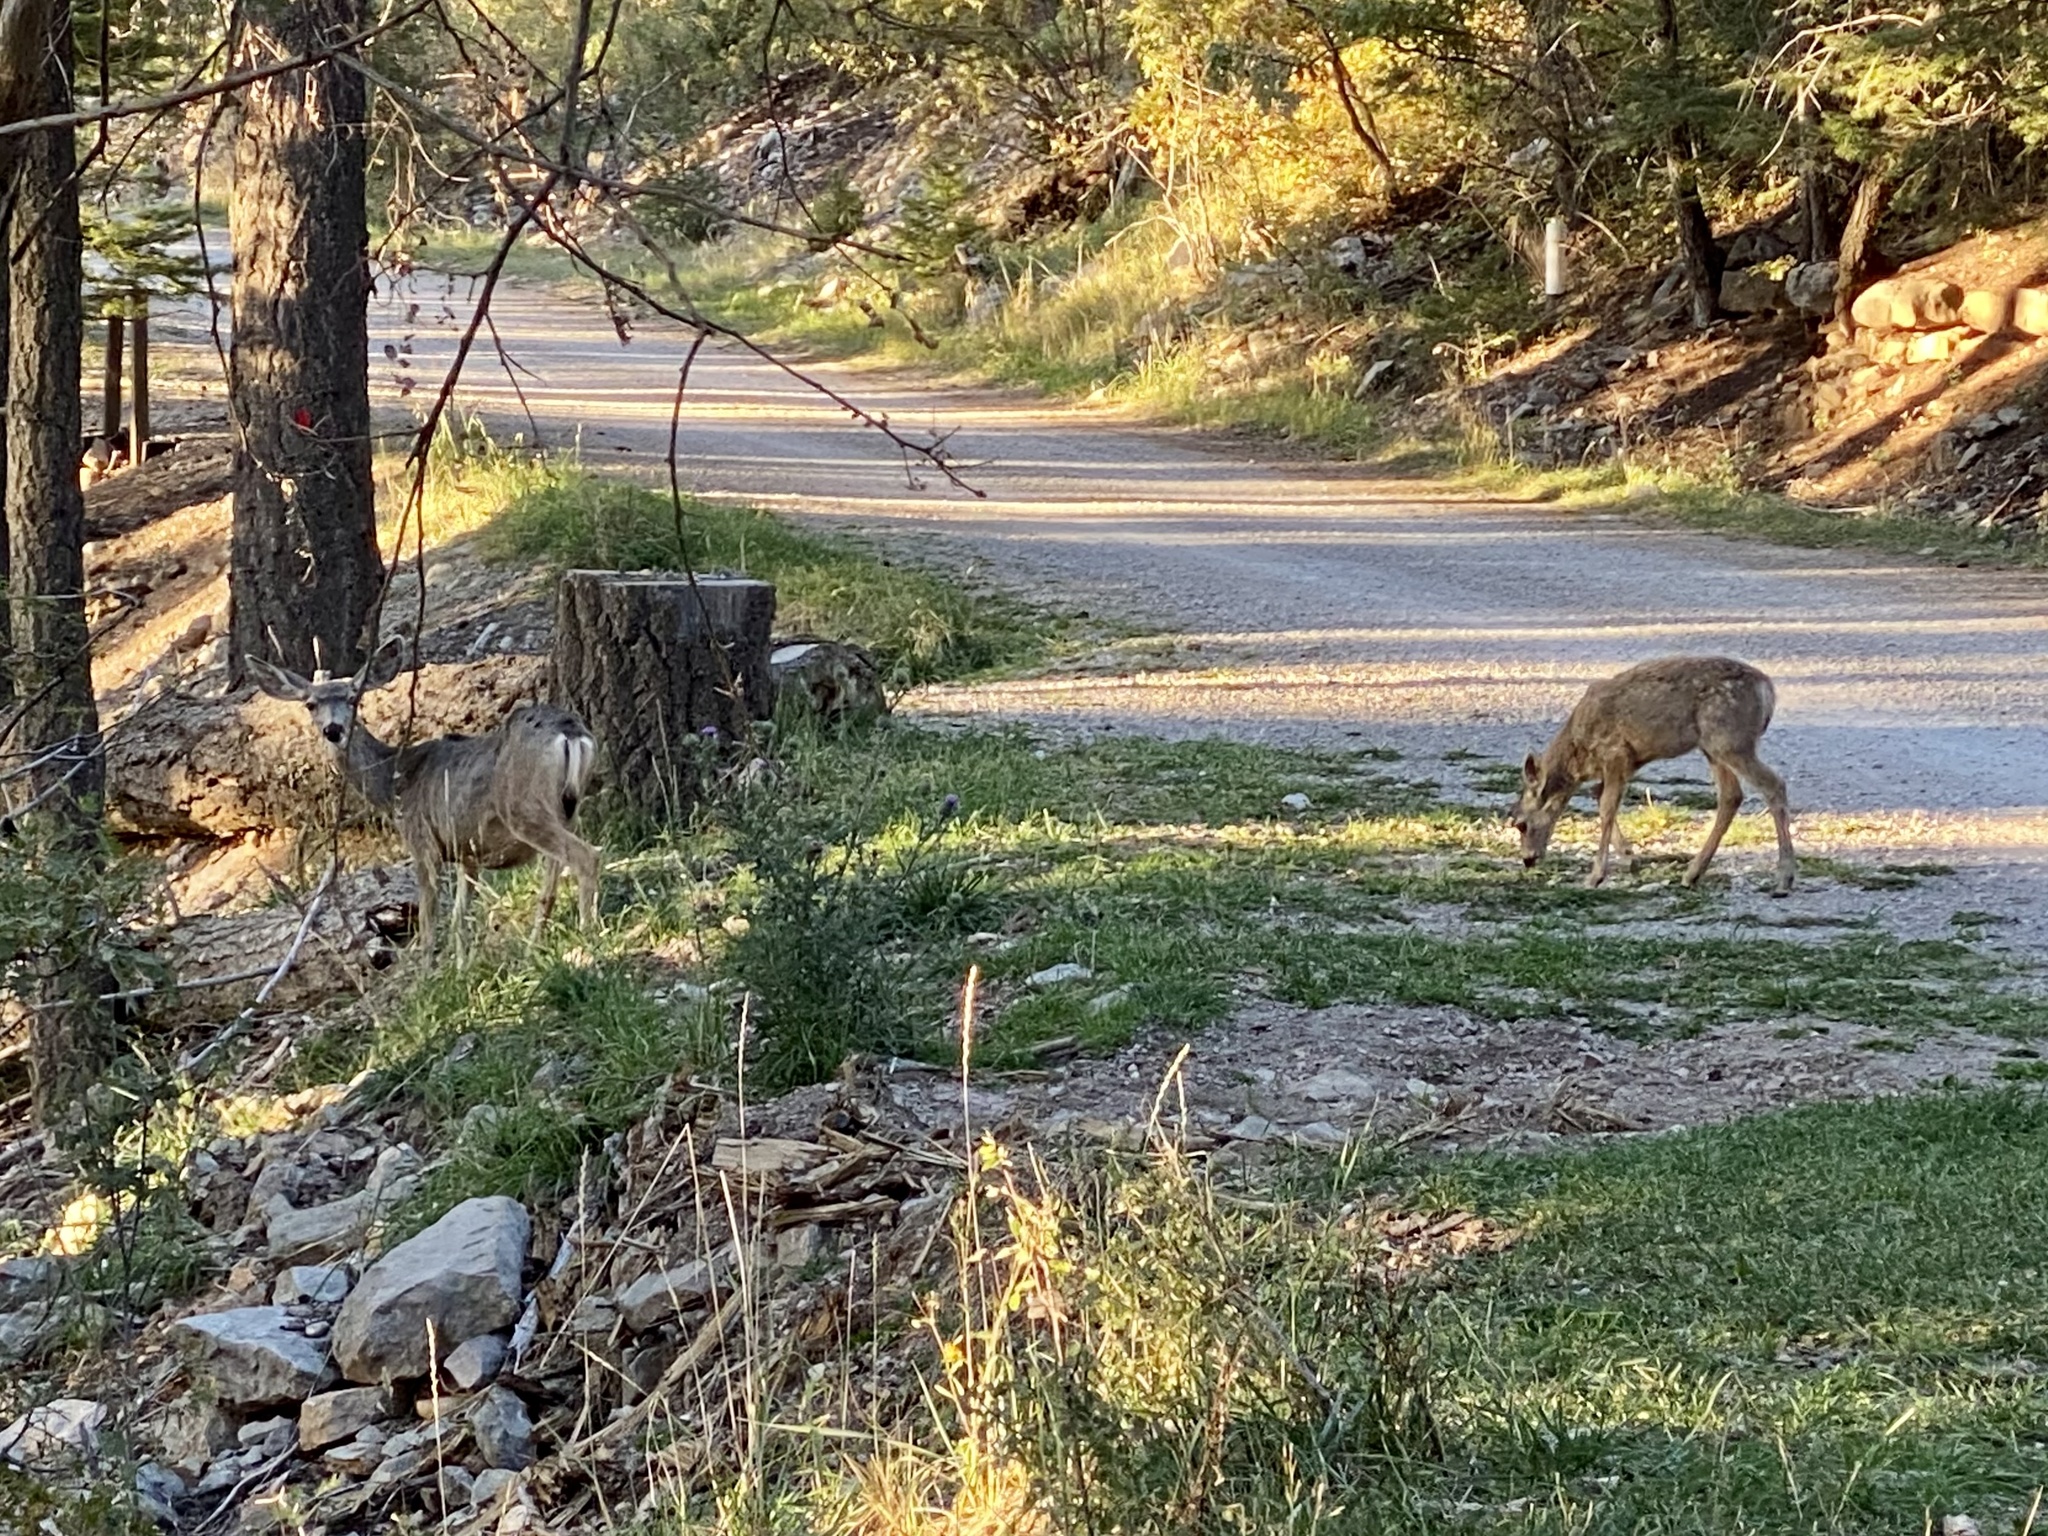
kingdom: Animalia
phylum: Chordata
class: Mammalia
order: Artiodactyla
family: Cervidae
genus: Odocoileus
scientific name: Odocoileus hemionus
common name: Mule deer
